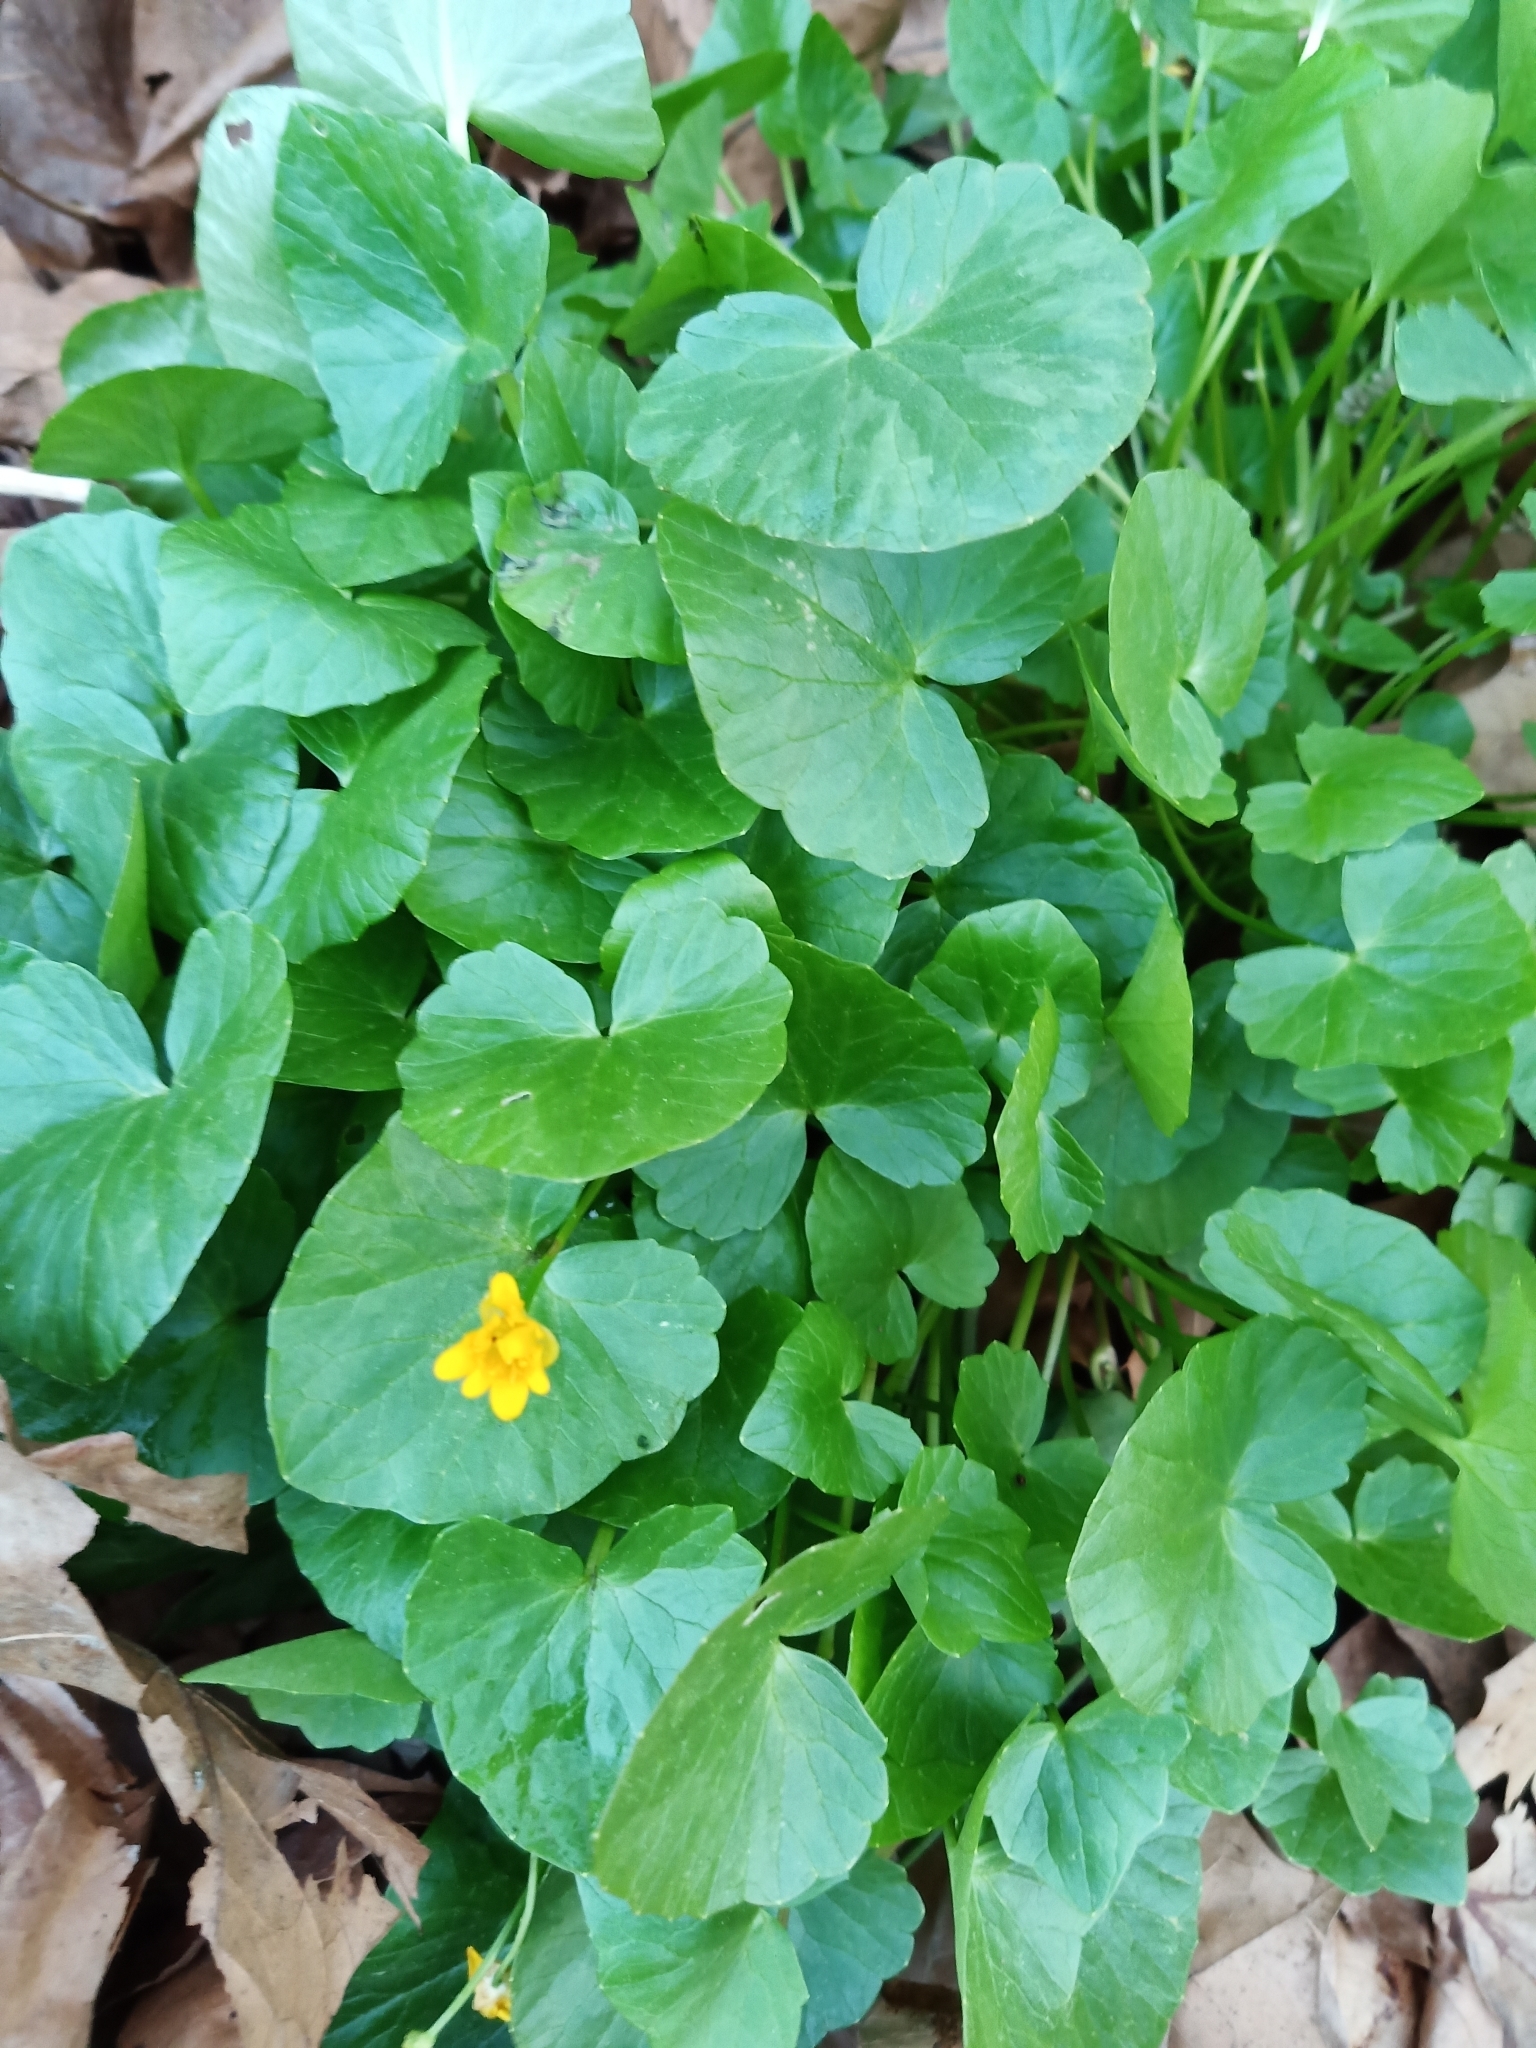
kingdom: Plantae
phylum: Tracheophyta
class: Magnoliopsida
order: Ranunculales
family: Ranunculaceae
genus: Ficaria
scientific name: Ficaria verna
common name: Lesser celandine
